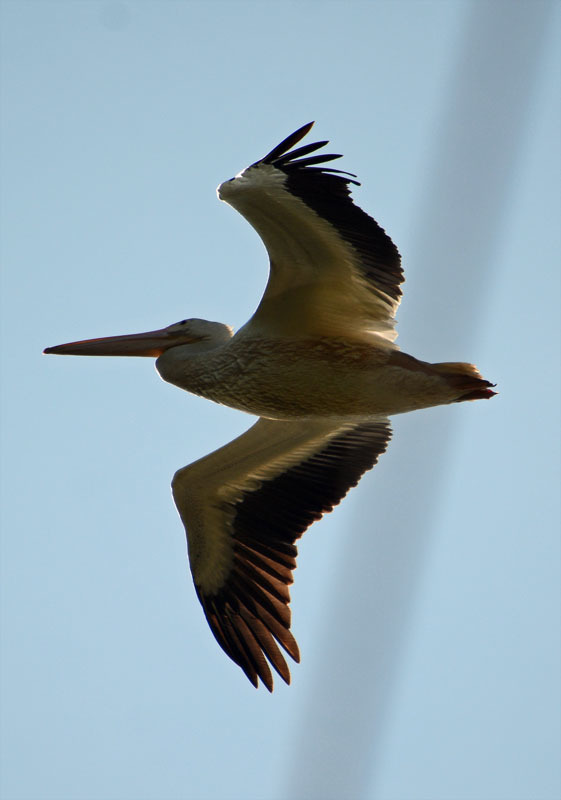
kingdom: Animalia
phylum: Chordata
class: Aves
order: Pelecaniformes
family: Pelecanidae
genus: Pelecanus
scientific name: Pelecanus erythrorhynchos
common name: American white pelican
